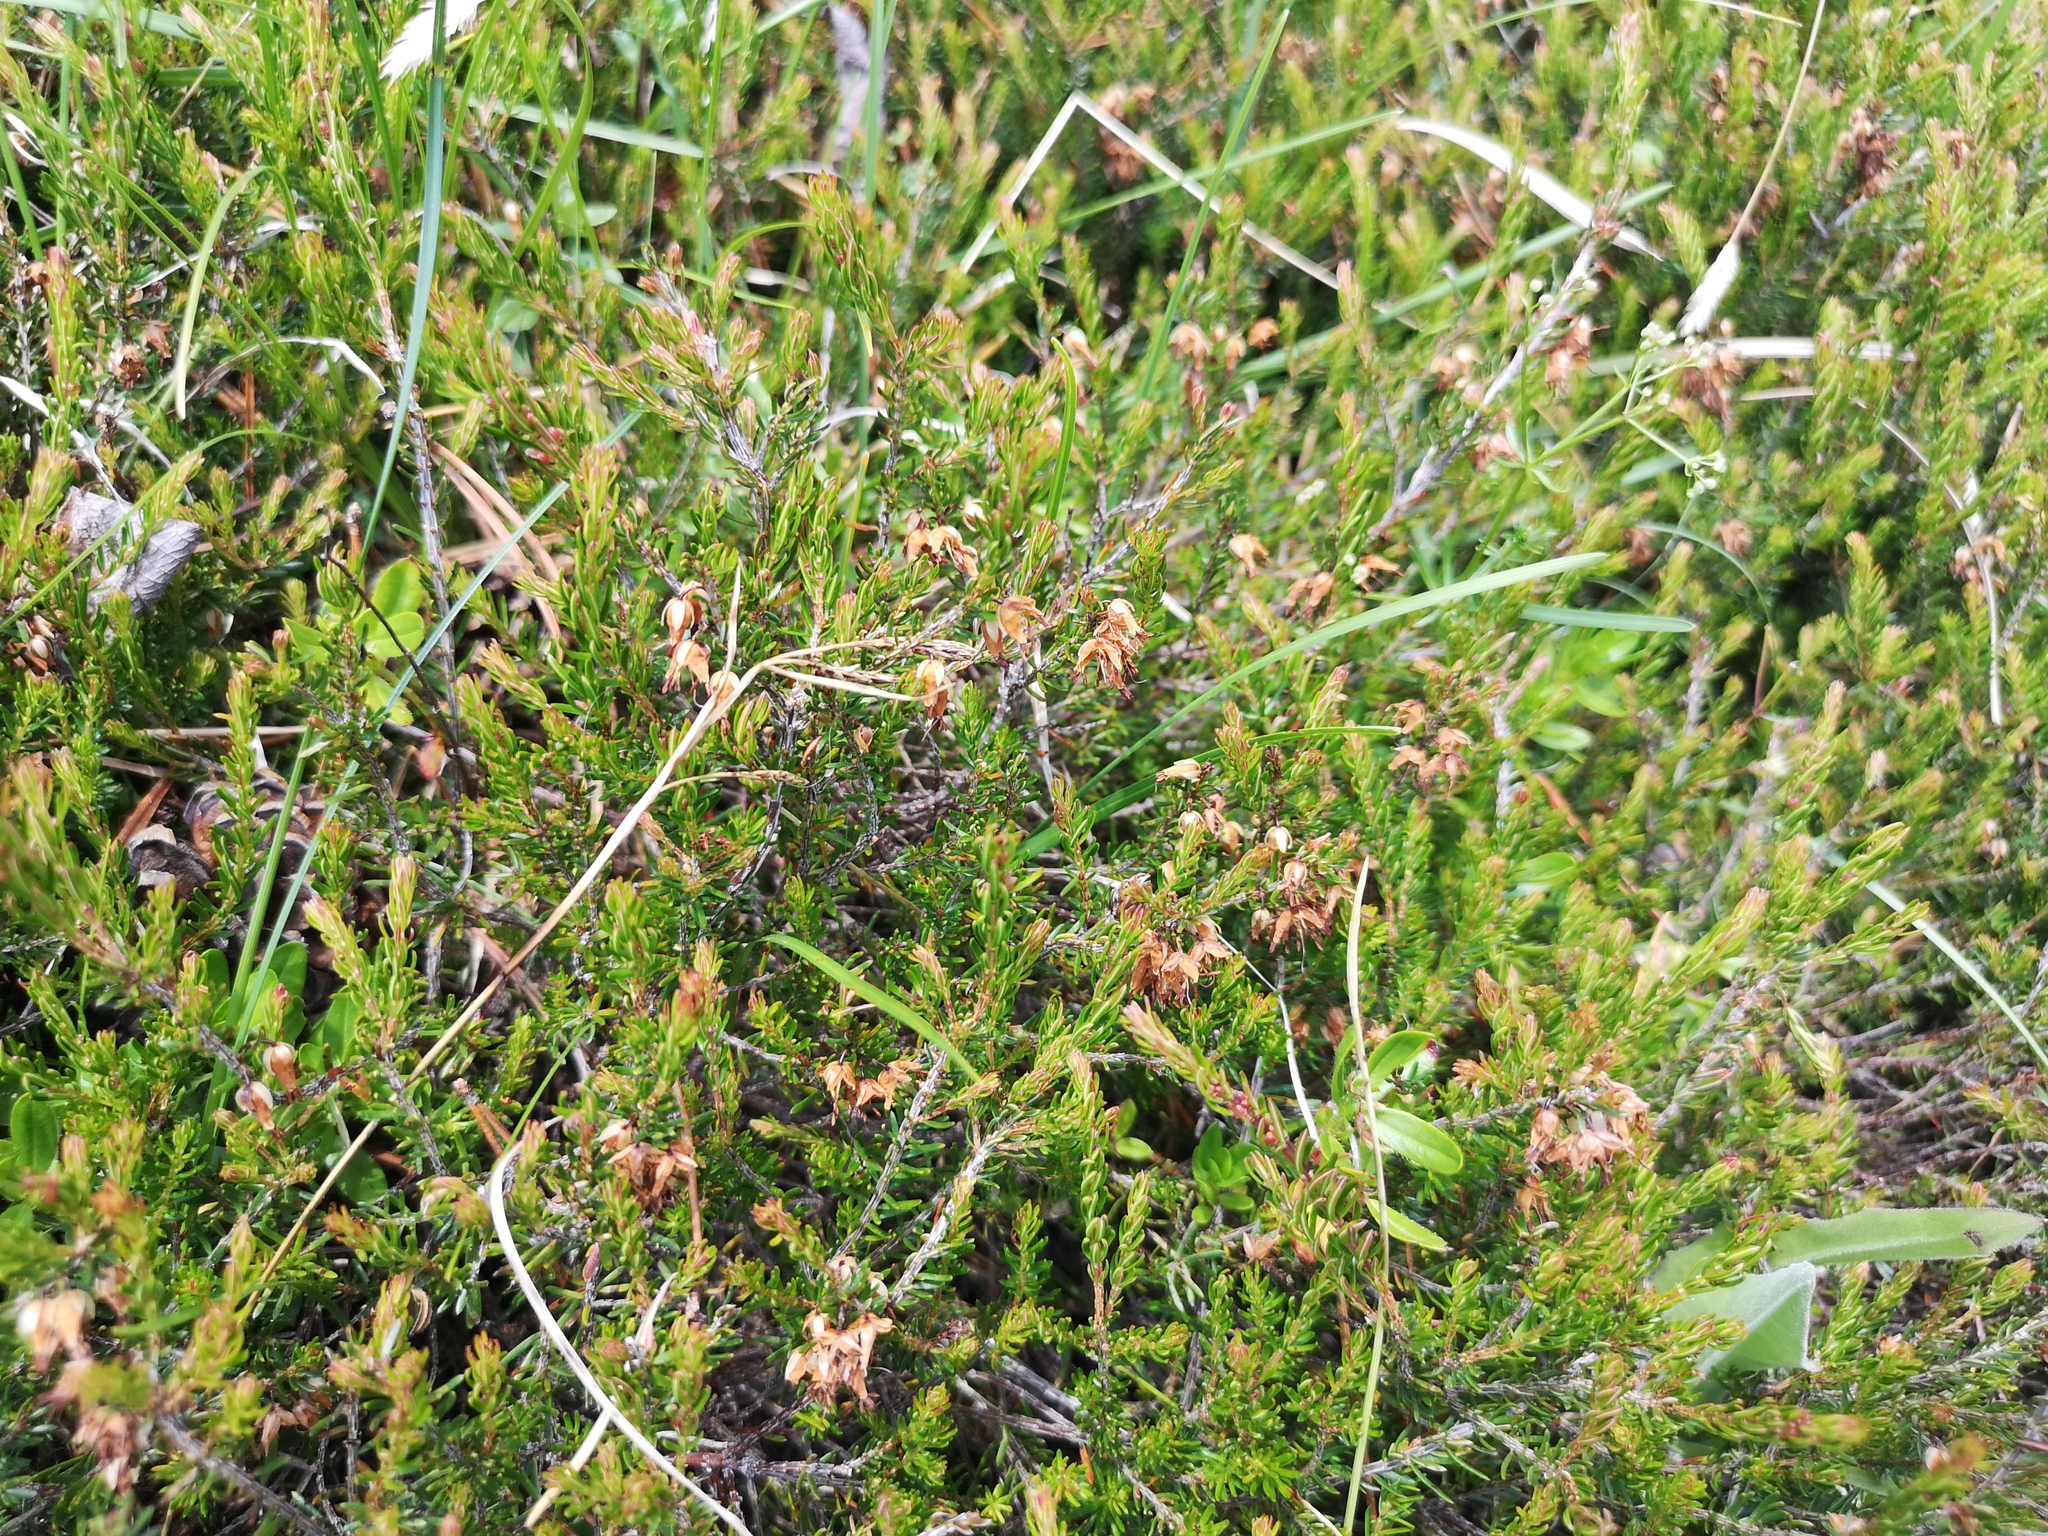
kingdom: Plantae
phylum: Tracheophyta
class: Magnoliopsida
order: Ericales
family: Ericaceae
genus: Erica
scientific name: Erica carnea
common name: Winter heath
